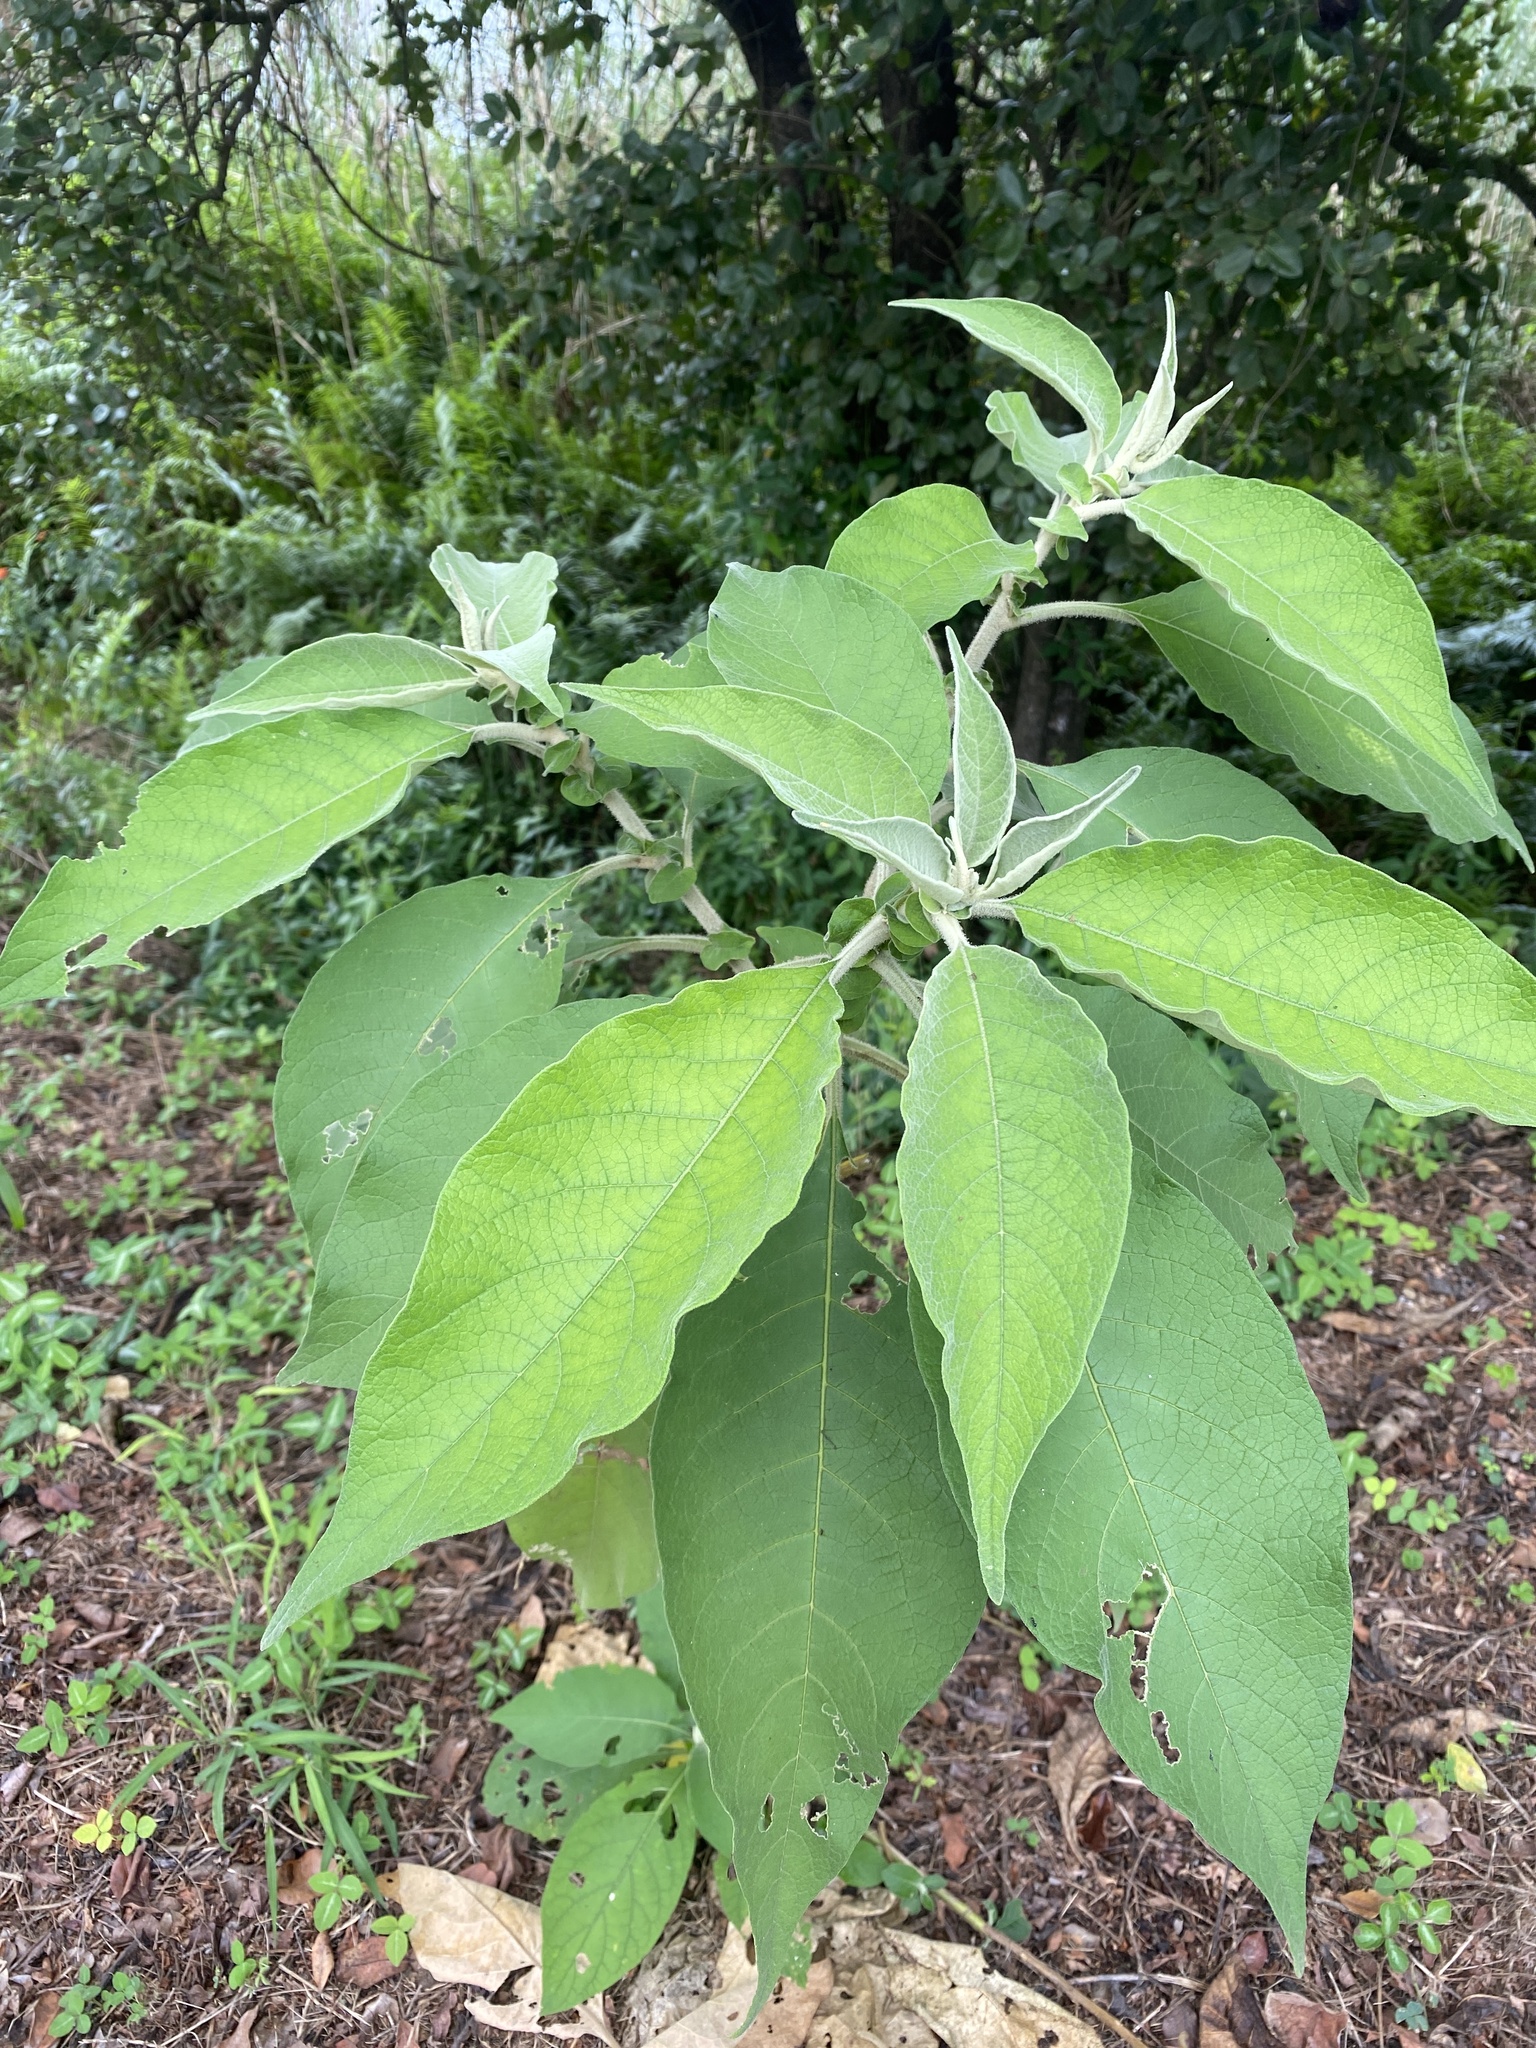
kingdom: Plantae
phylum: Tracheophyta
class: Magnoliopsida
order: Solanales
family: Solanaceae
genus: Solanum
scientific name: Solanum mauritianum
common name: Earleaf nightshade
